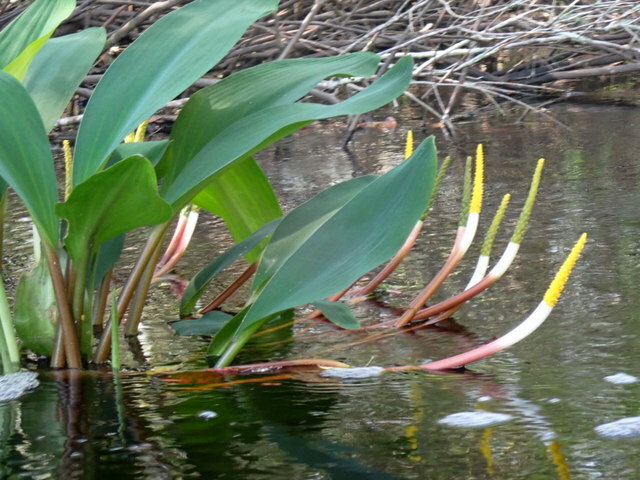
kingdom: Plantae
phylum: Tracheophyta
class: Liliopsida
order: Alismatales
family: Araceae
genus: Orontium
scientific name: Orontium aquaticum
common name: Golden-club
